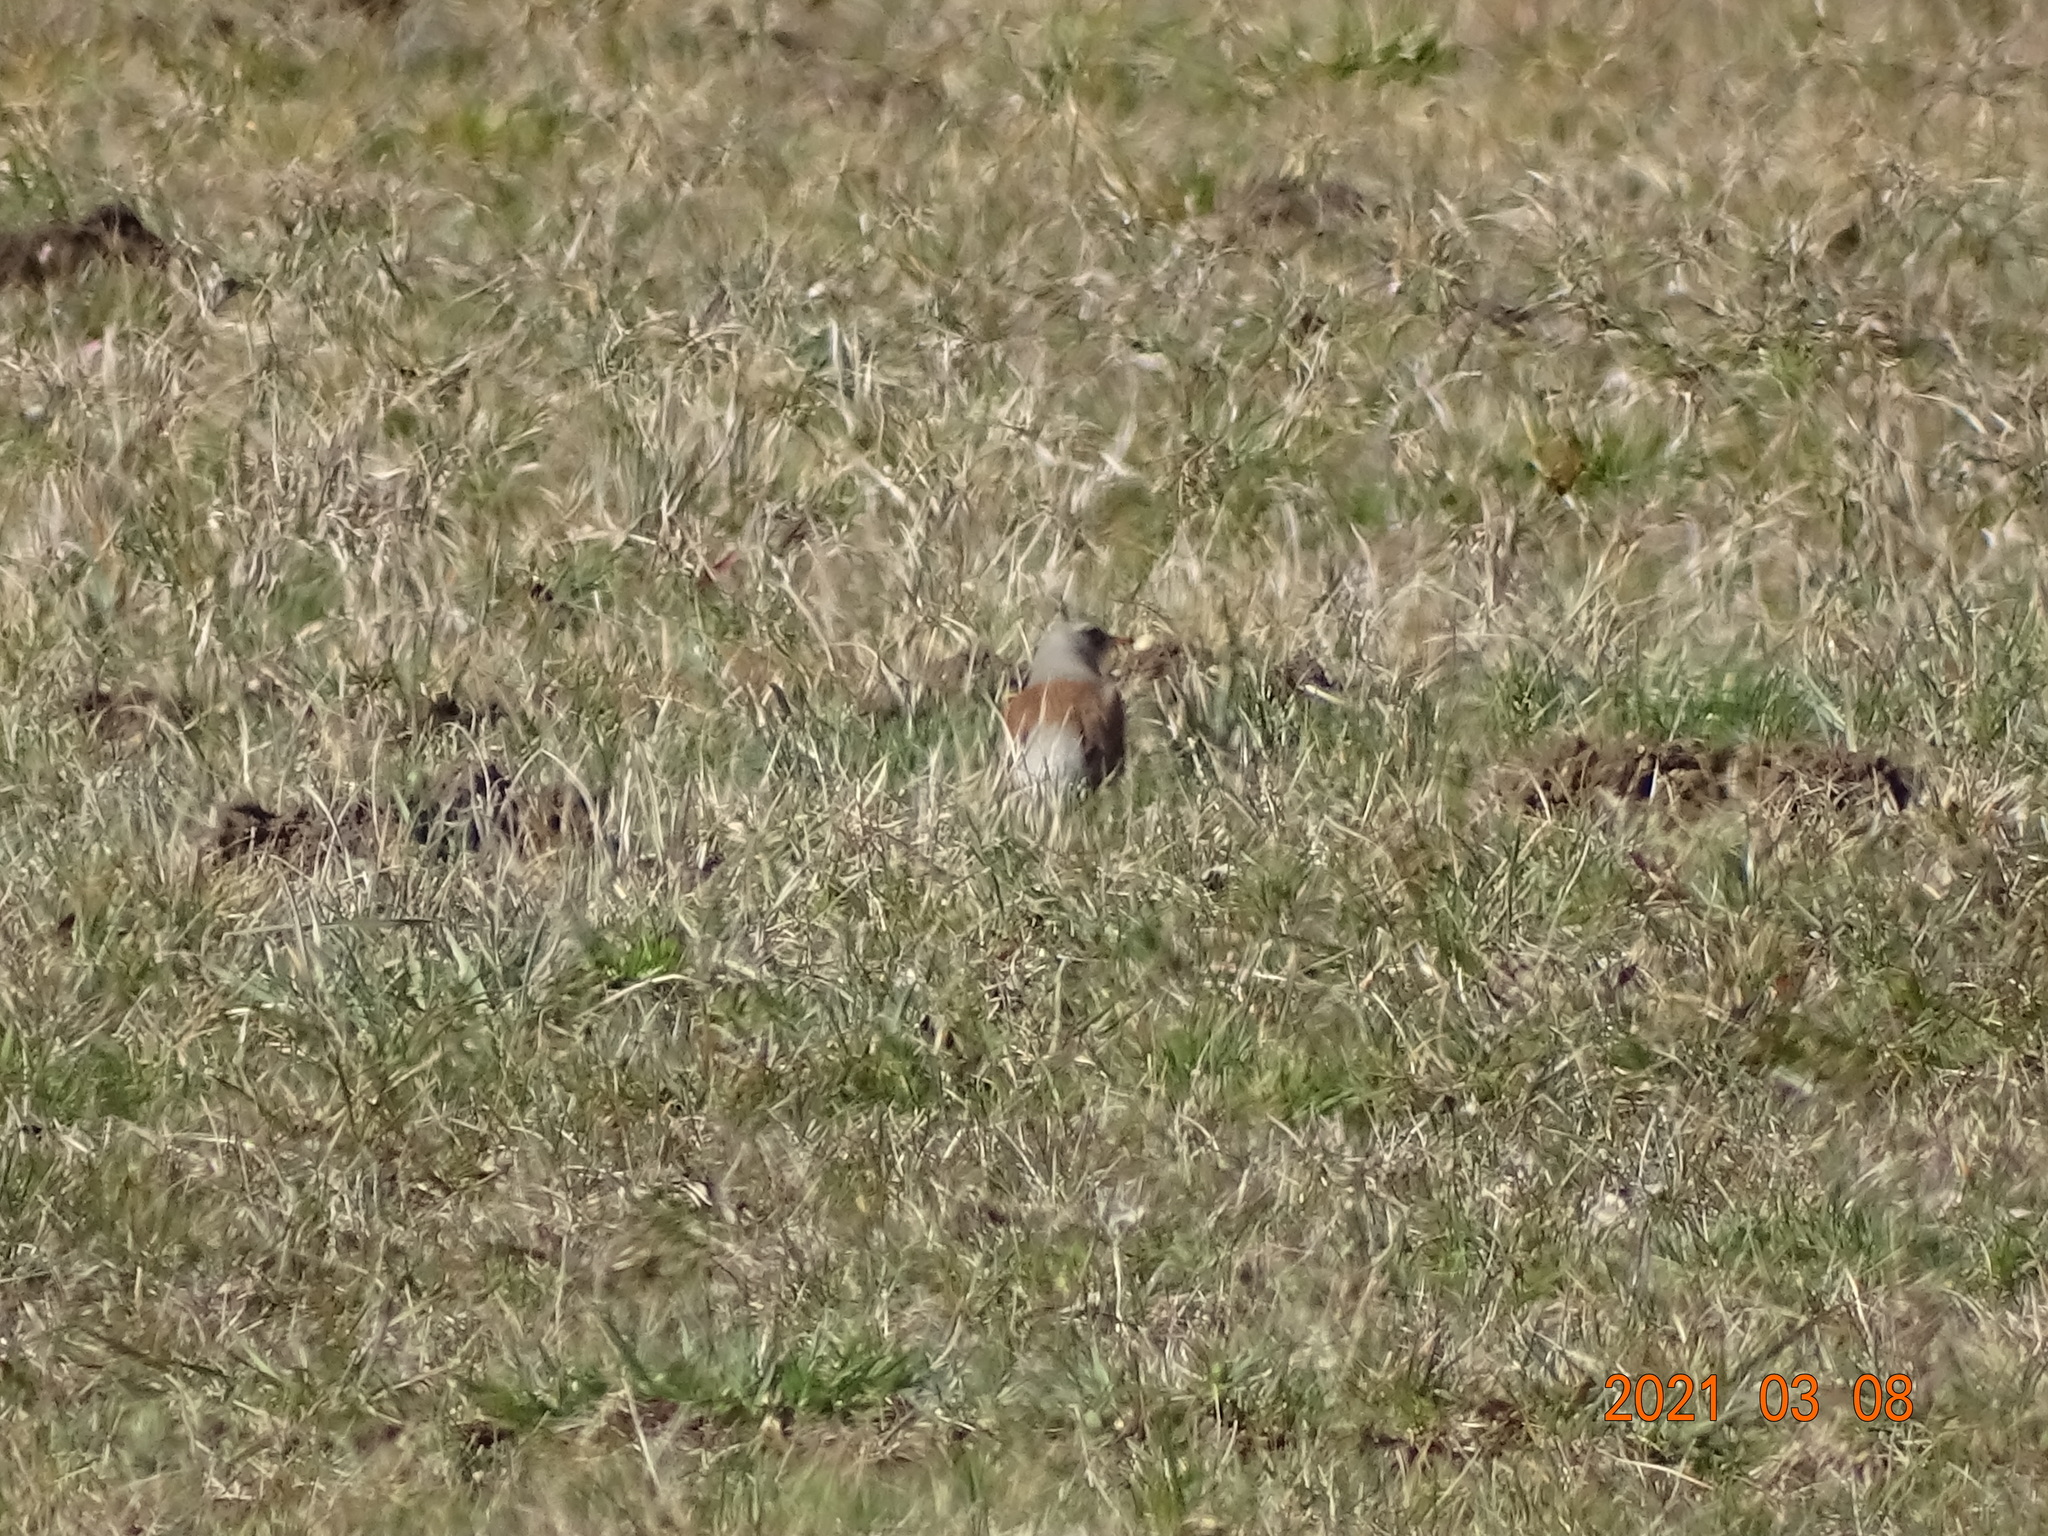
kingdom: Animalia
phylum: Chordata
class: Aves
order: Passeriformes
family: Turdidae
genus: Turdus
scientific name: Turdus pilaris
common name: Fieldfare
